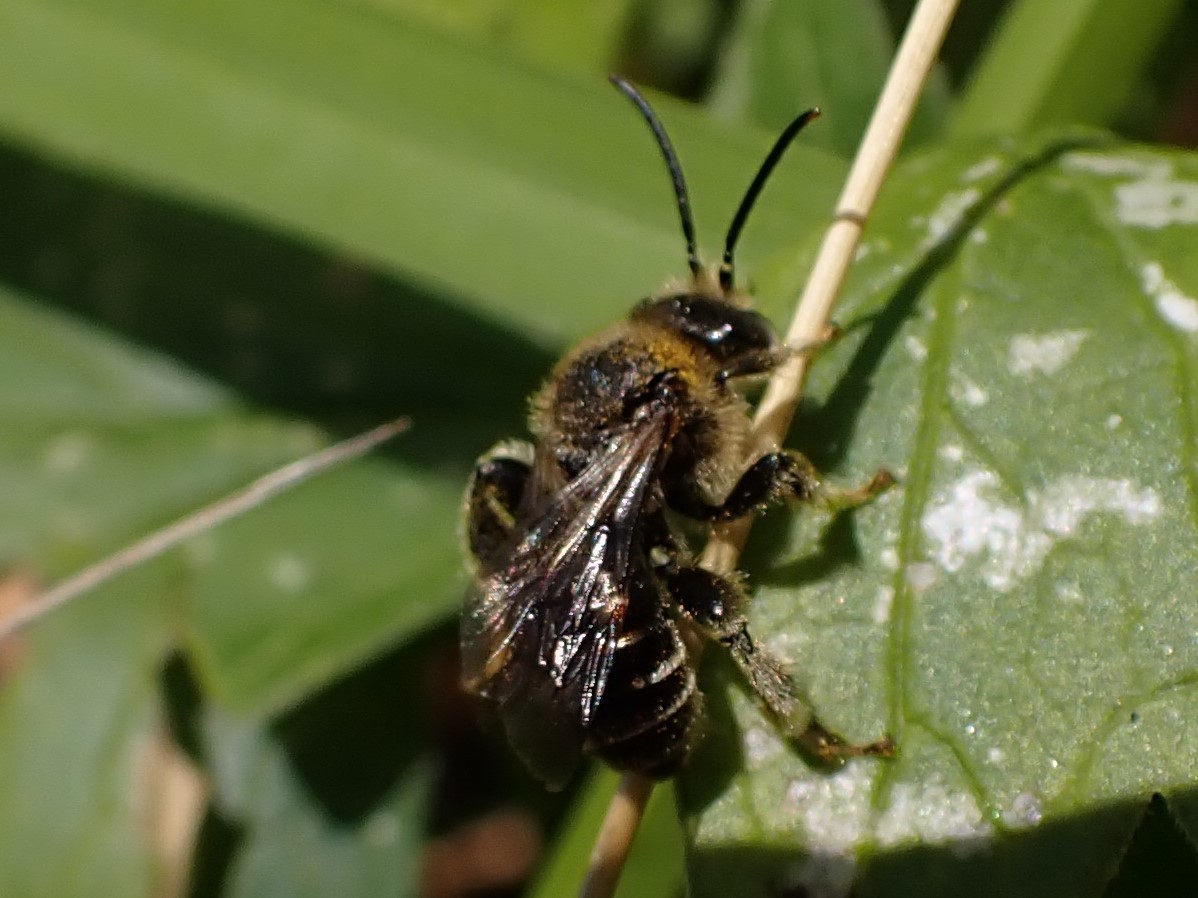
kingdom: Animalia
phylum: Arthropoda
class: Insecta
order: Hymenoptera
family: Melittidae
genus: Macropis
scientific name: Macropis europaea
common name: Yellow loosestrife bee
